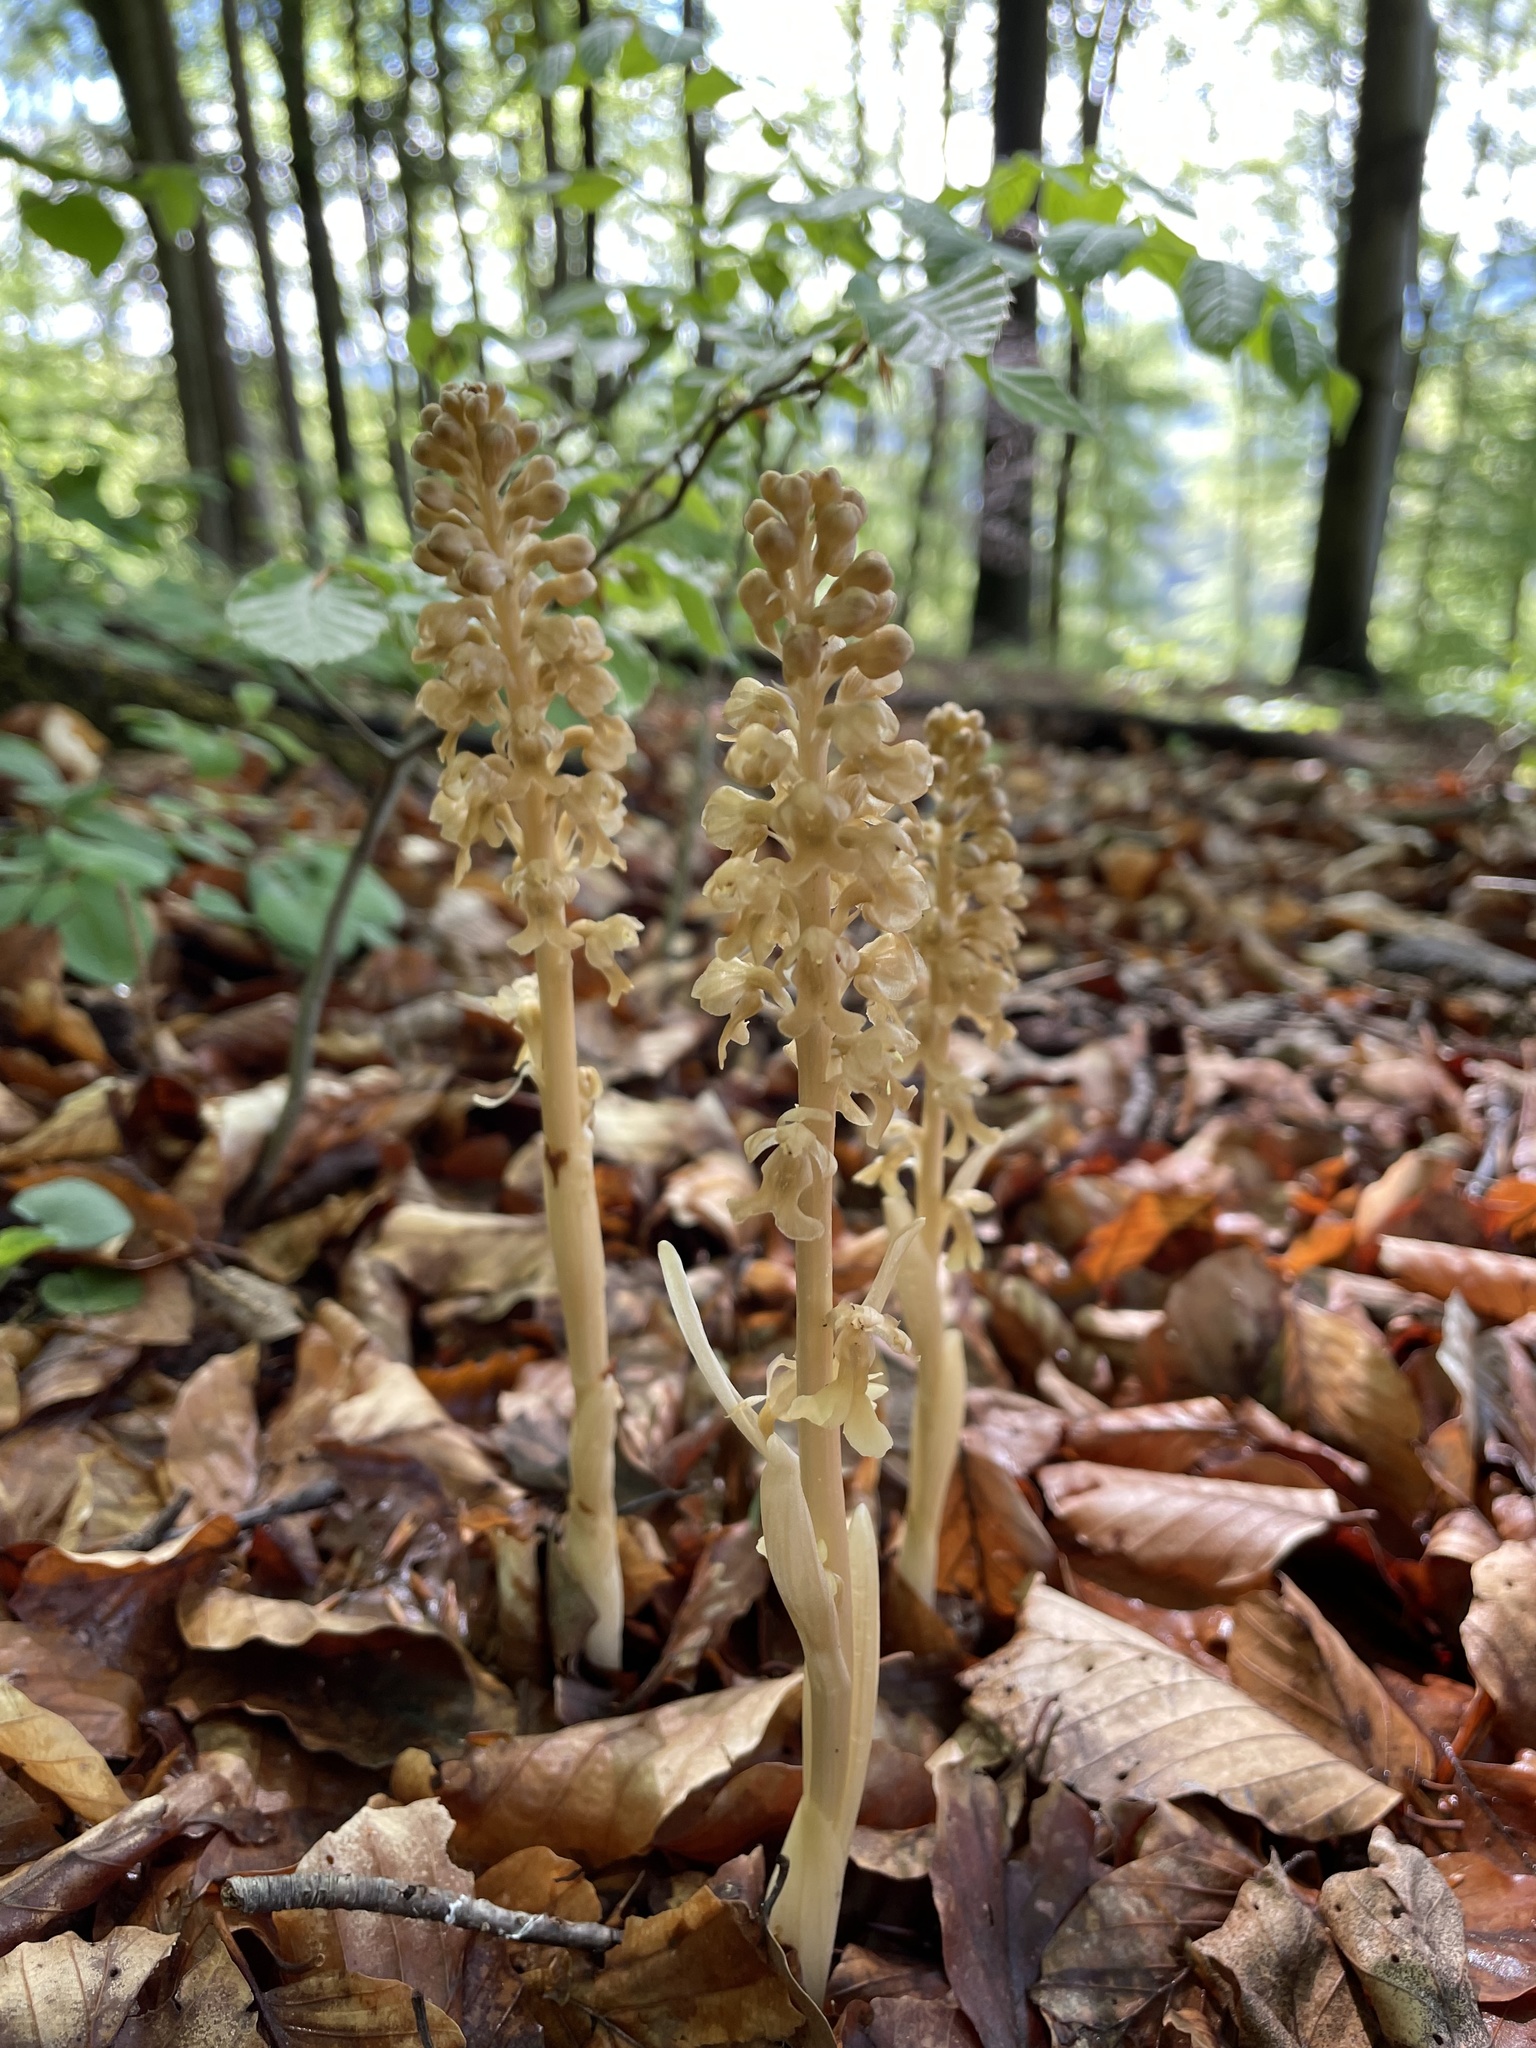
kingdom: Plantae
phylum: Tracheophyta
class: Liliopsida
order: Asparagales
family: Orchidaceae
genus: Neottia
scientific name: Neottia nidus-avis
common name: Bird's-nest orchid
